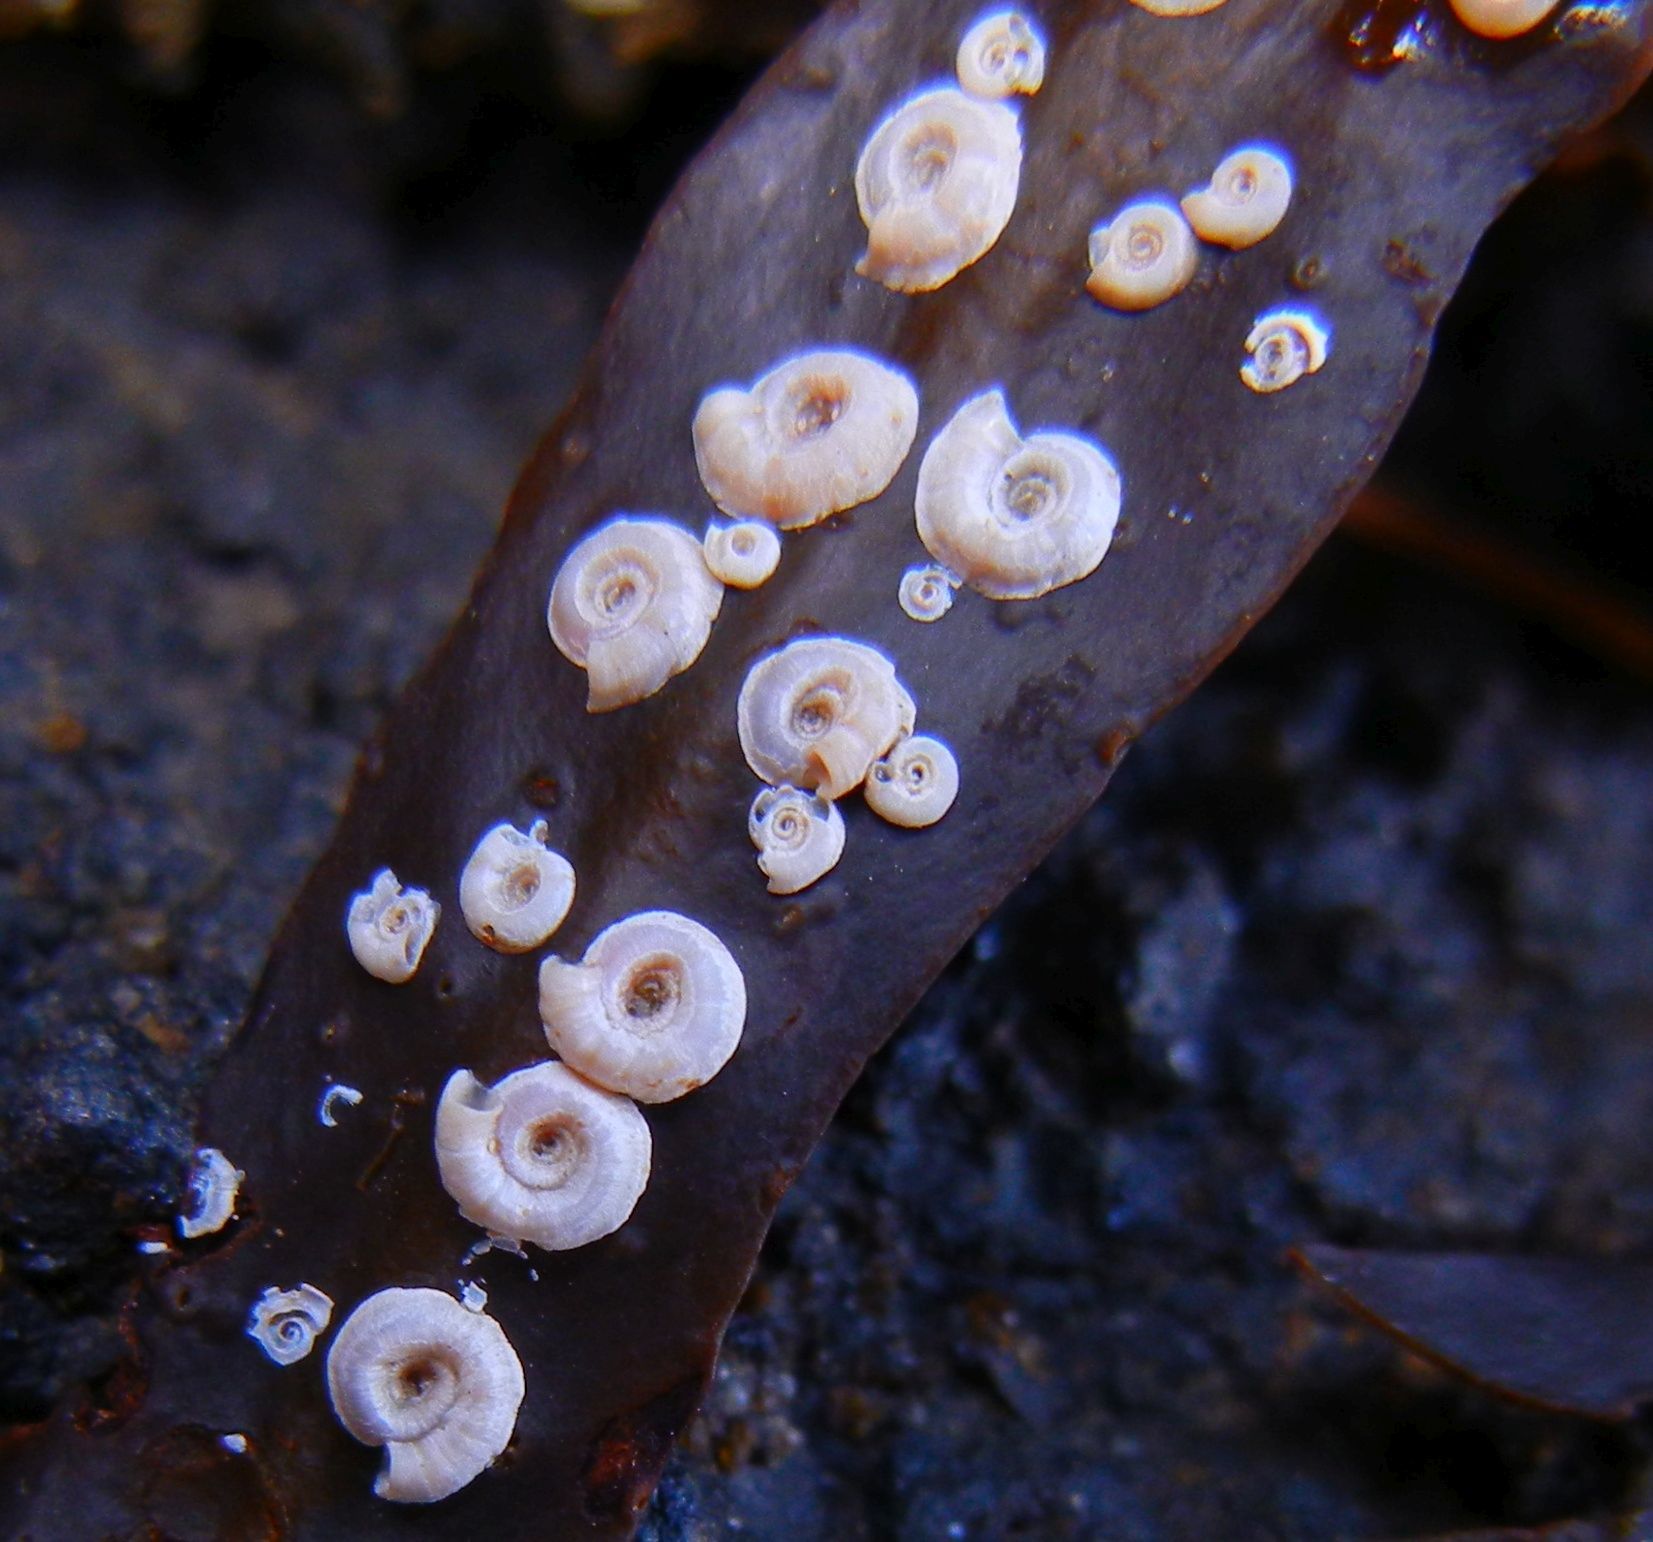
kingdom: Animalia
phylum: Annelida
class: Polychaeta
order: Sabellida
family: Serpulidae
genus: Spirorbis
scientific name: Spirorbis spirorbis
